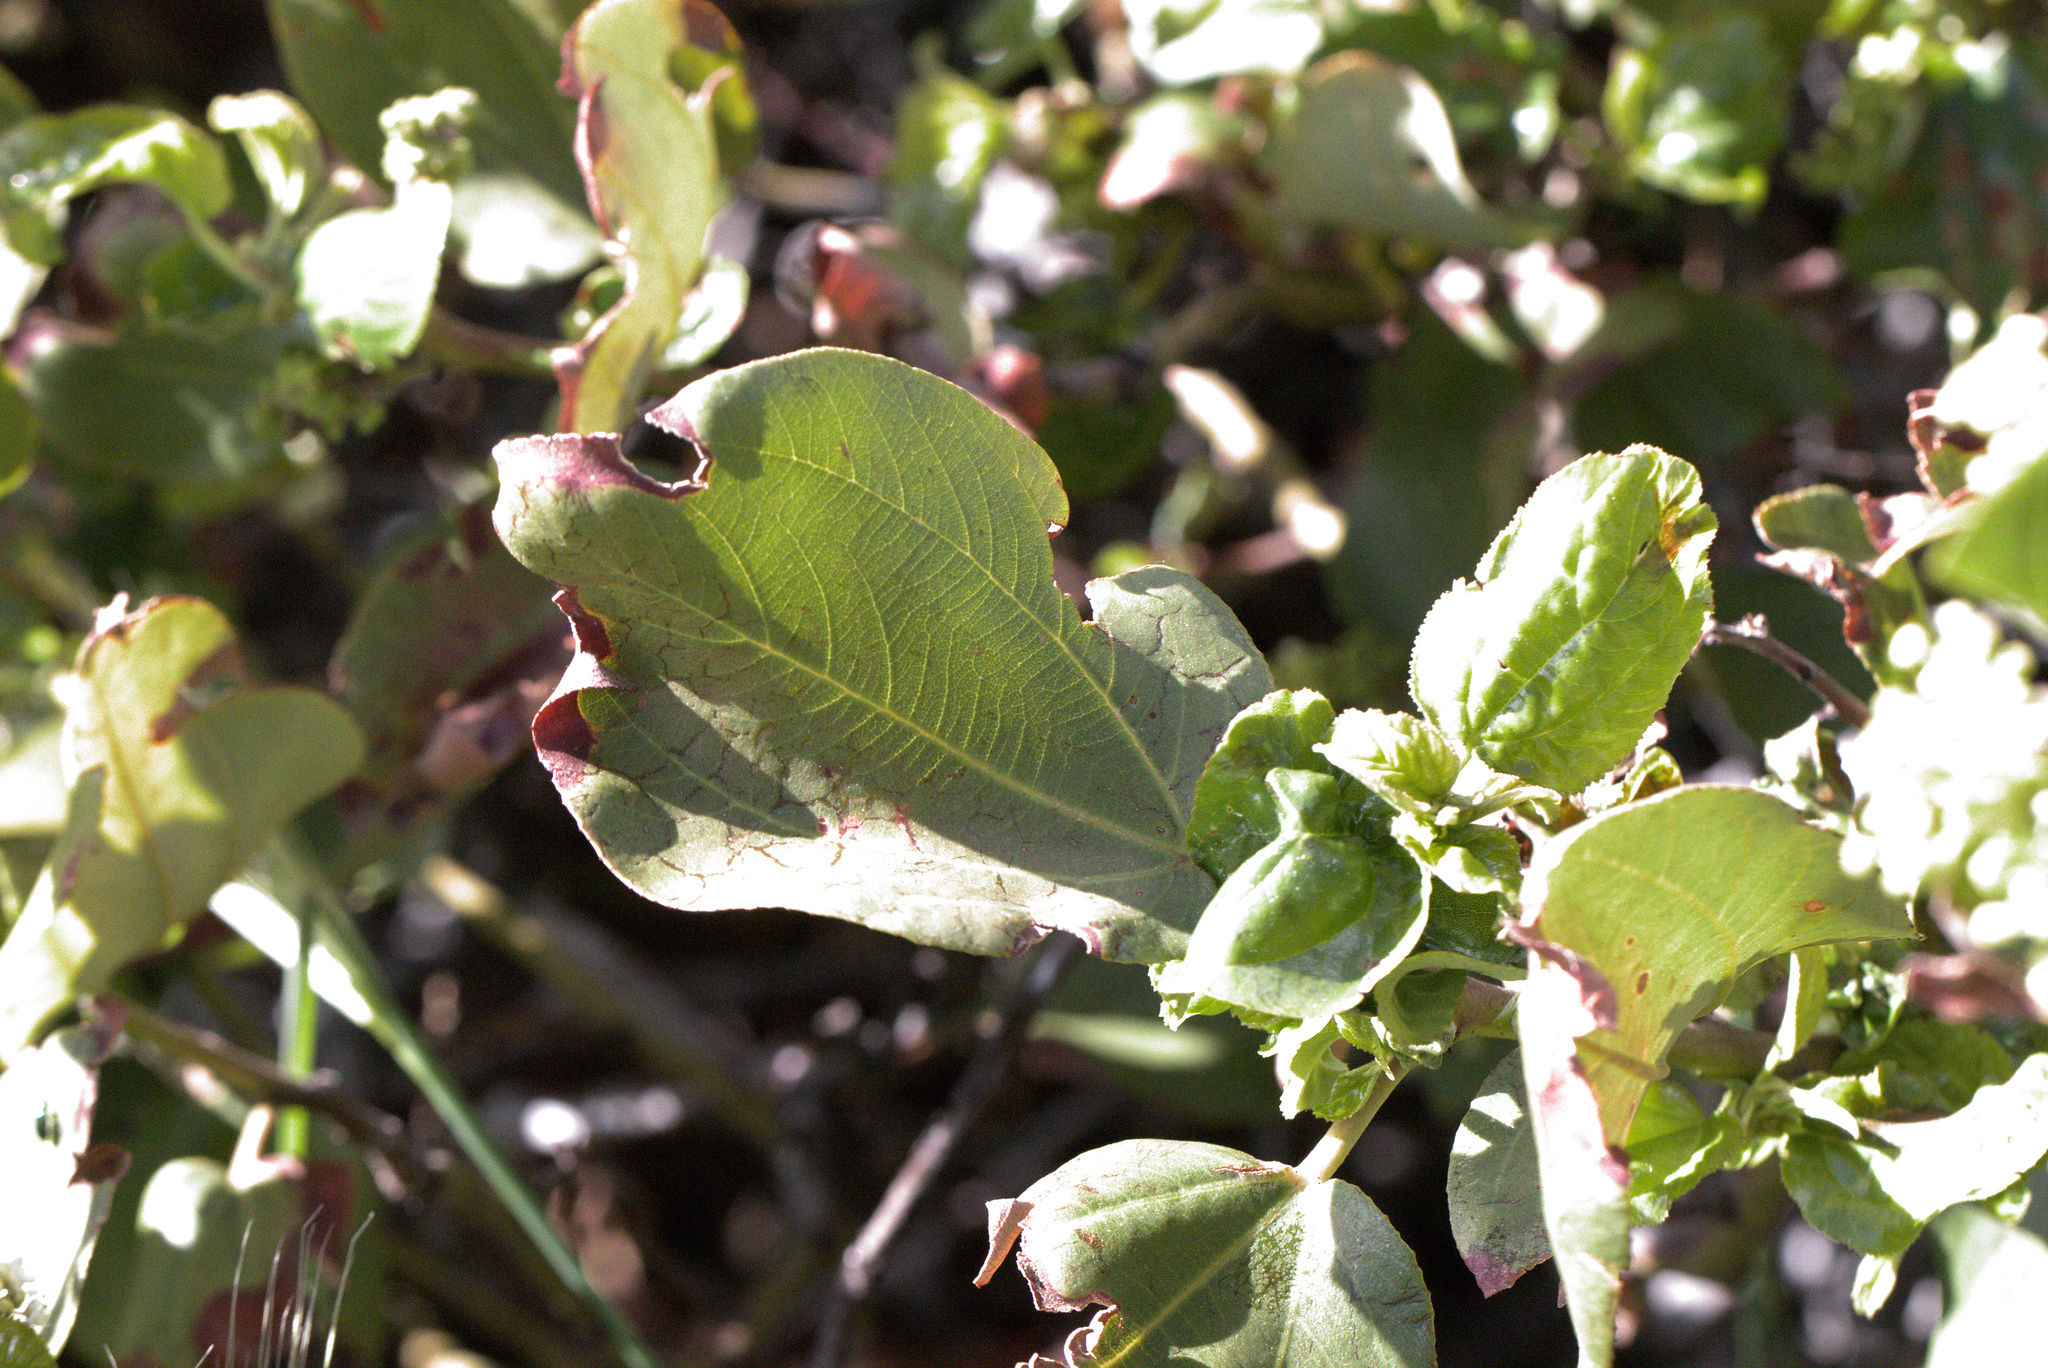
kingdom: Plantae
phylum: Tracheophyta
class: Magnoliopsida
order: Rosales
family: Rhamnaceae
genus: Ceanothus
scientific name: Ceanothus velutinus
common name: Snowbrush
